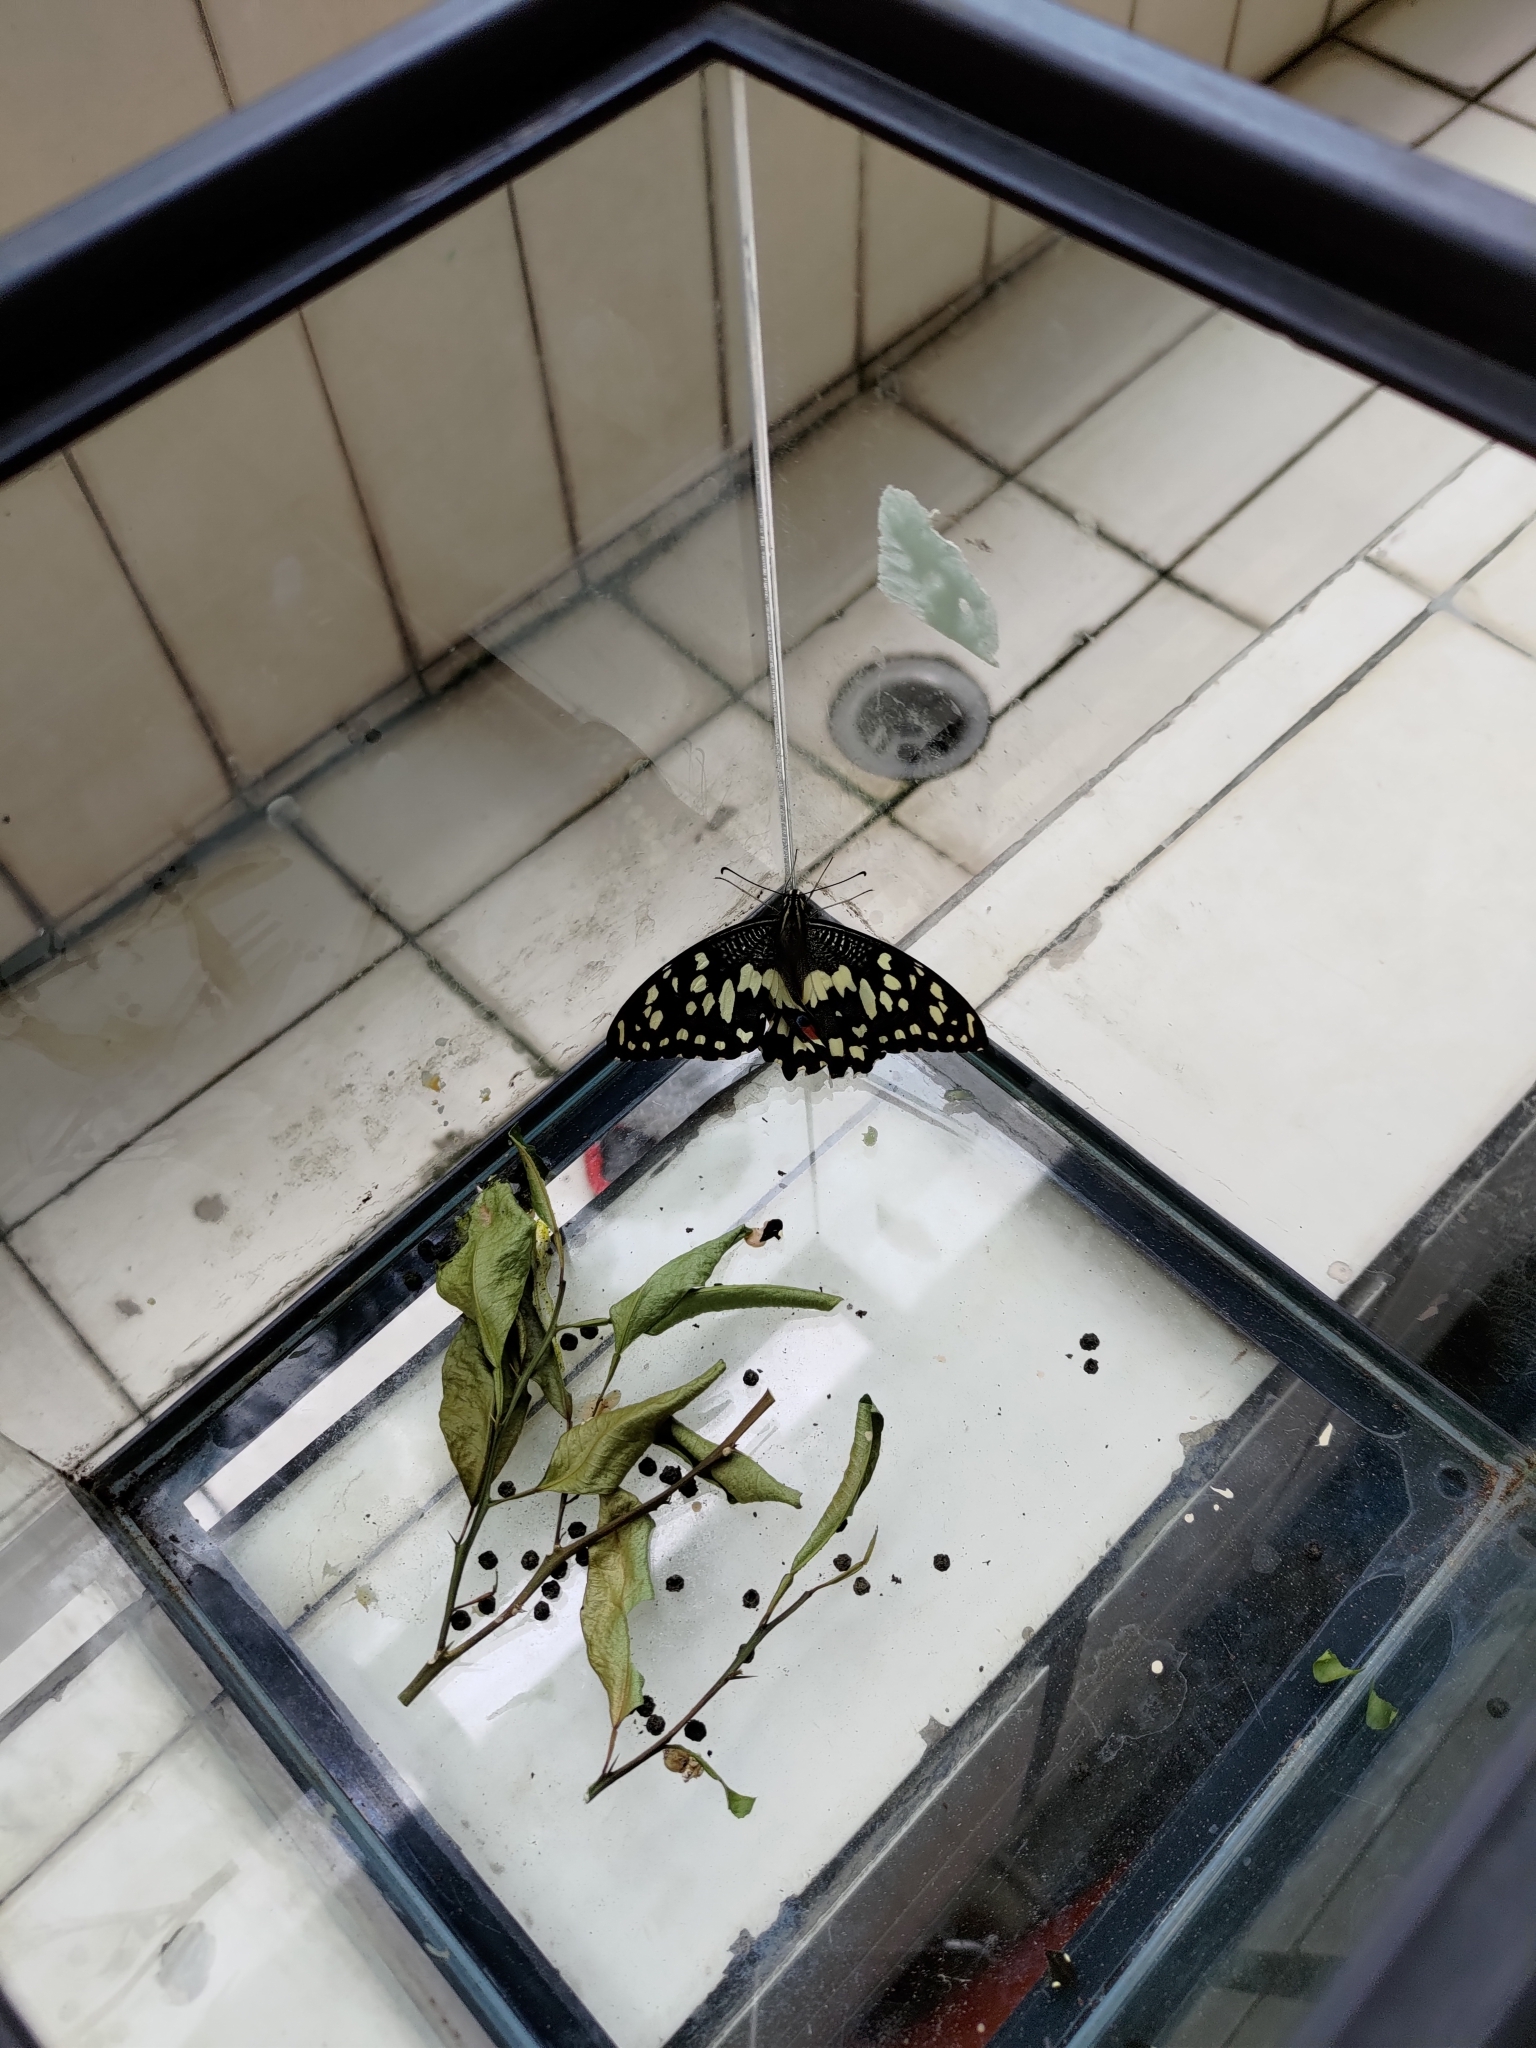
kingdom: Animalia
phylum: Arthropoda
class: Insecta
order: Lepidoptera
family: Papilionidae
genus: Papilio
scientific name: Papilio demoleus
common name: Lime butterfly
